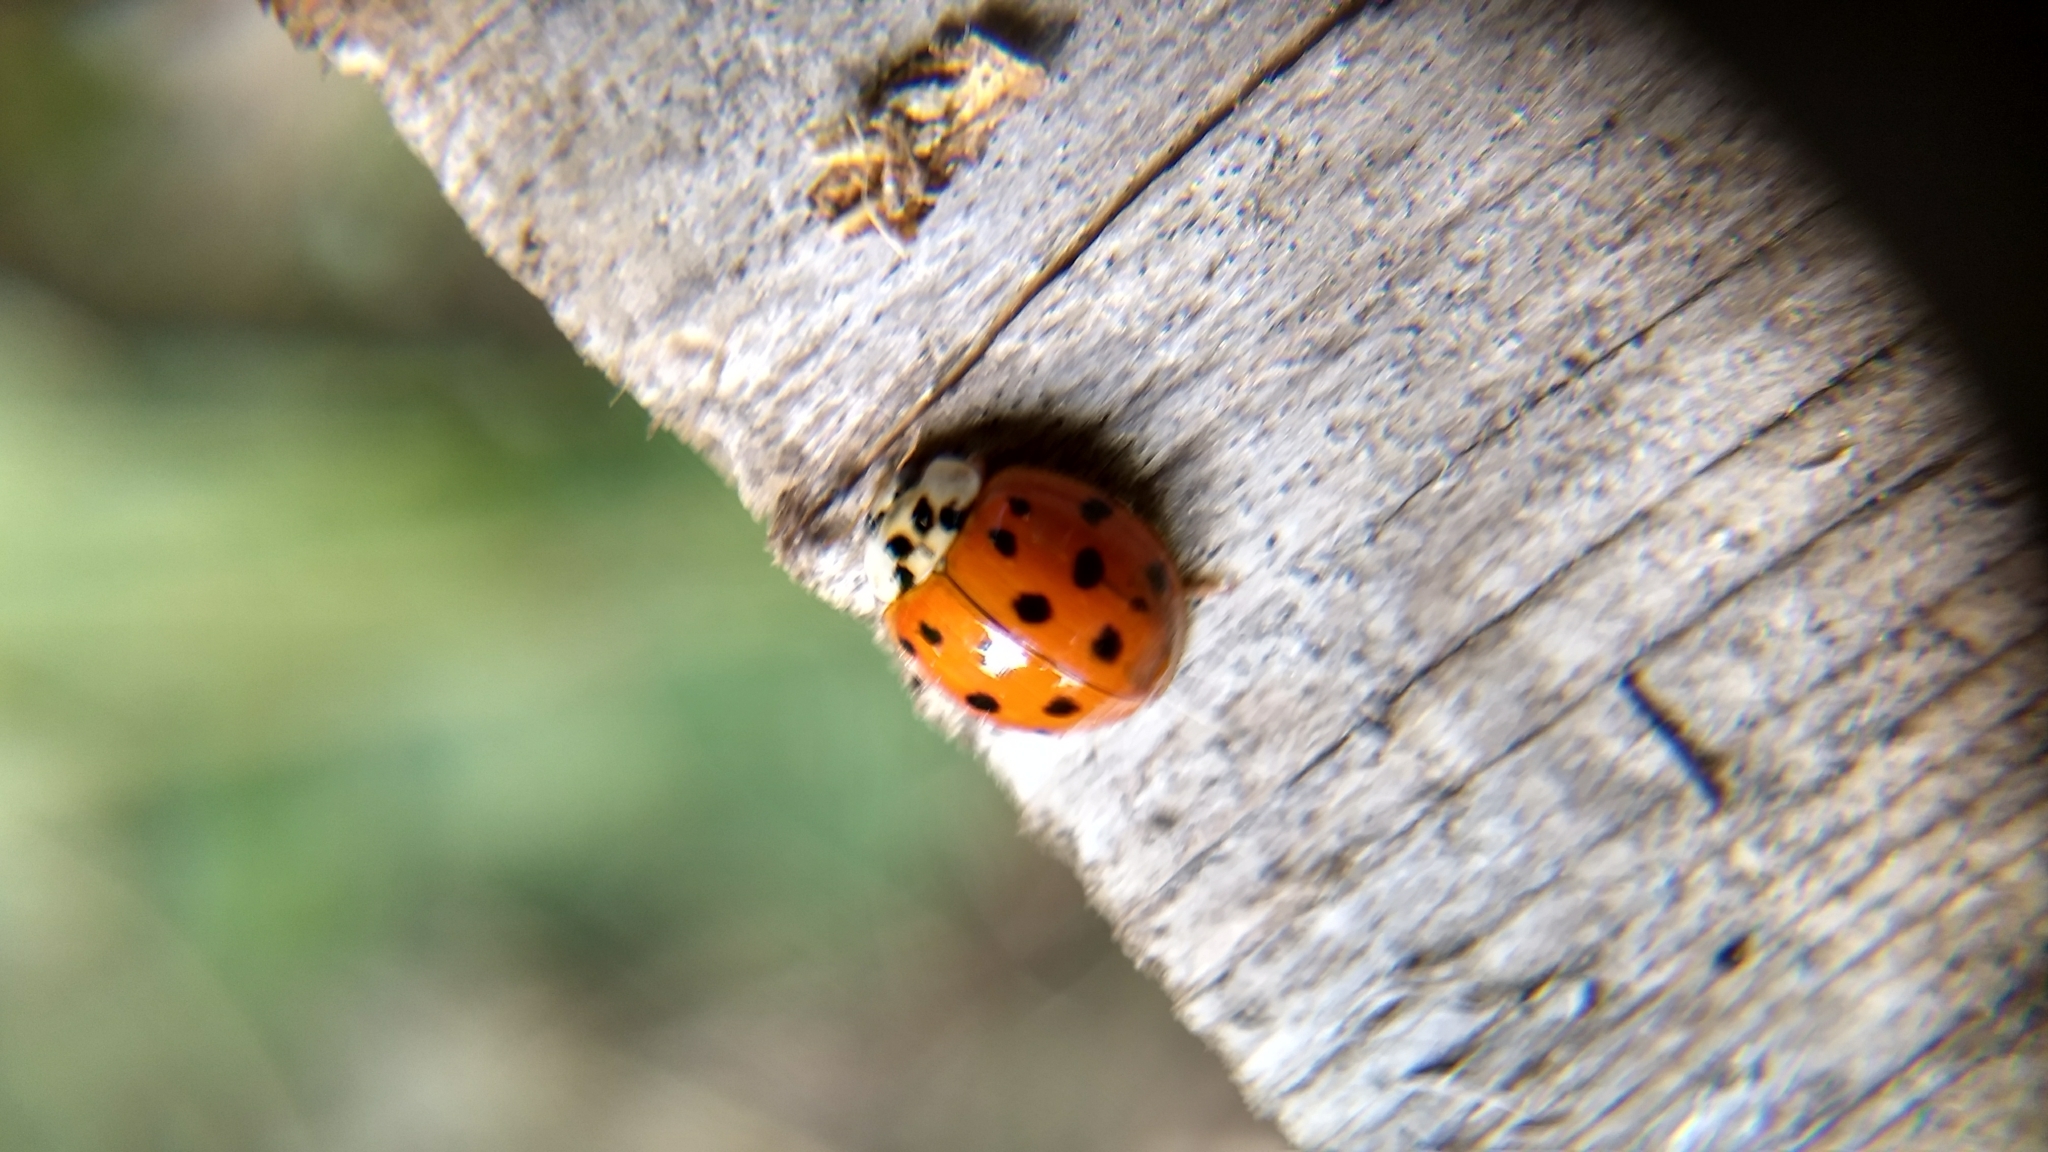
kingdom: Animalia
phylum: Arthropoda
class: Insecta
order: Coleoptera
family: Coccinellidae
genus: Harmonia
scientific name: Harmonia axyridis
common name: Harlequin ladybird
